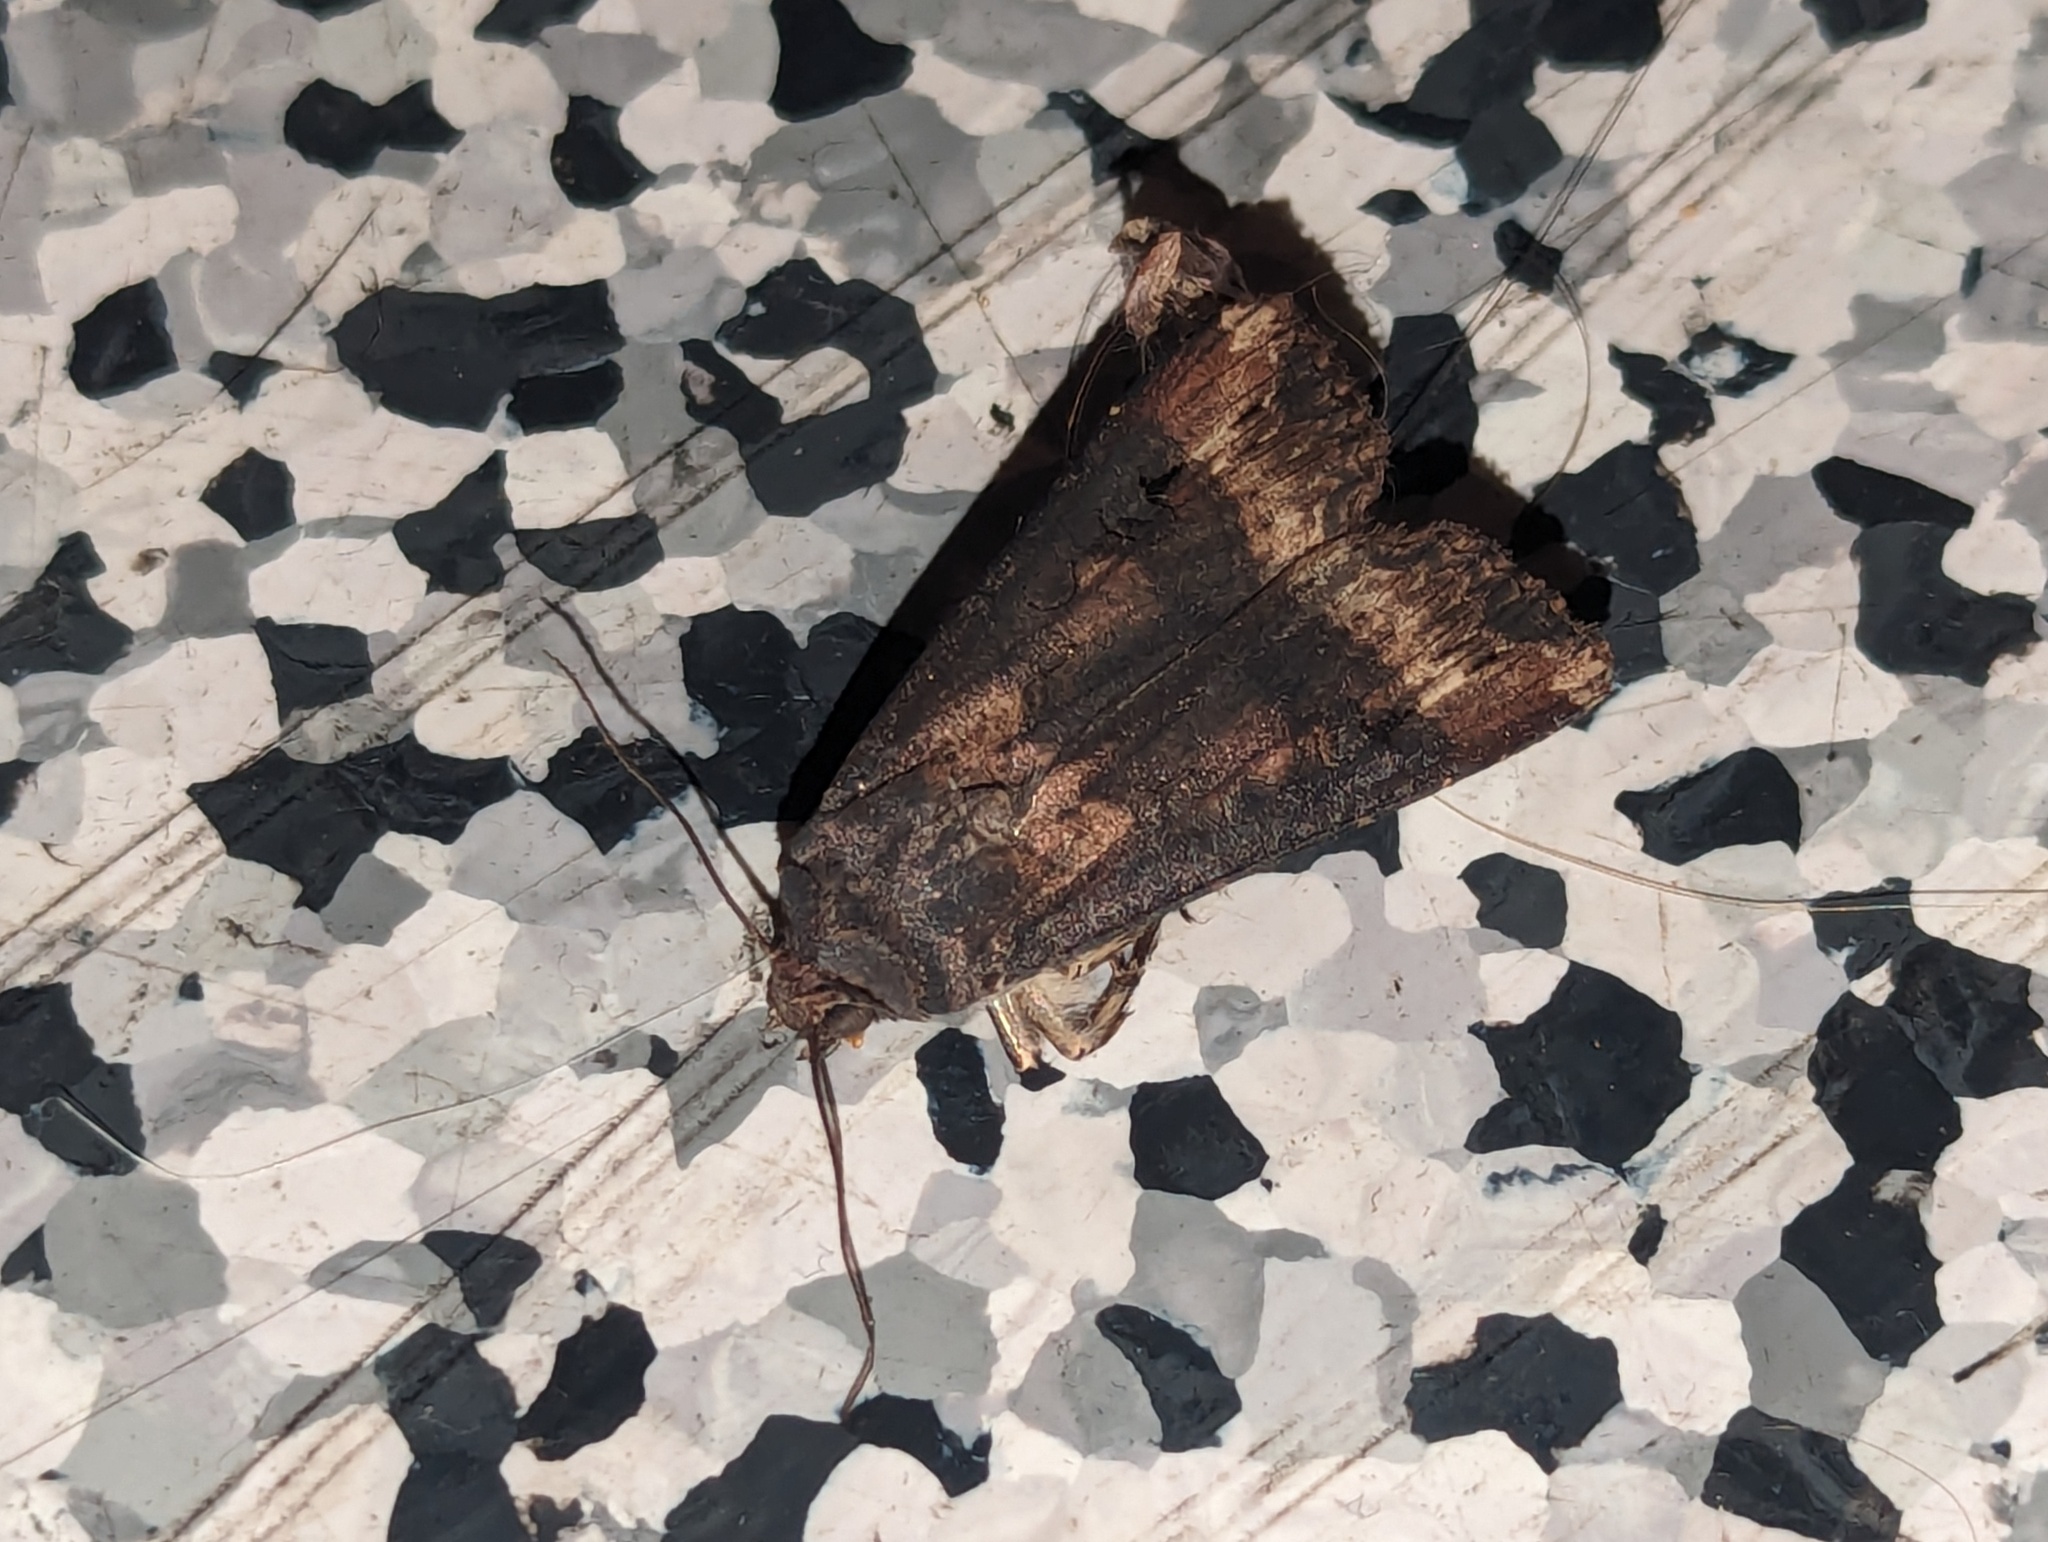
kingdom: Animalia
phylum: Arthropoda
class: Insecta
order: Lepidoptera
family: Noctuidae
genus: Agrotis
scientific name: Agrotis ipsilon
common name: Dark sword-grass
